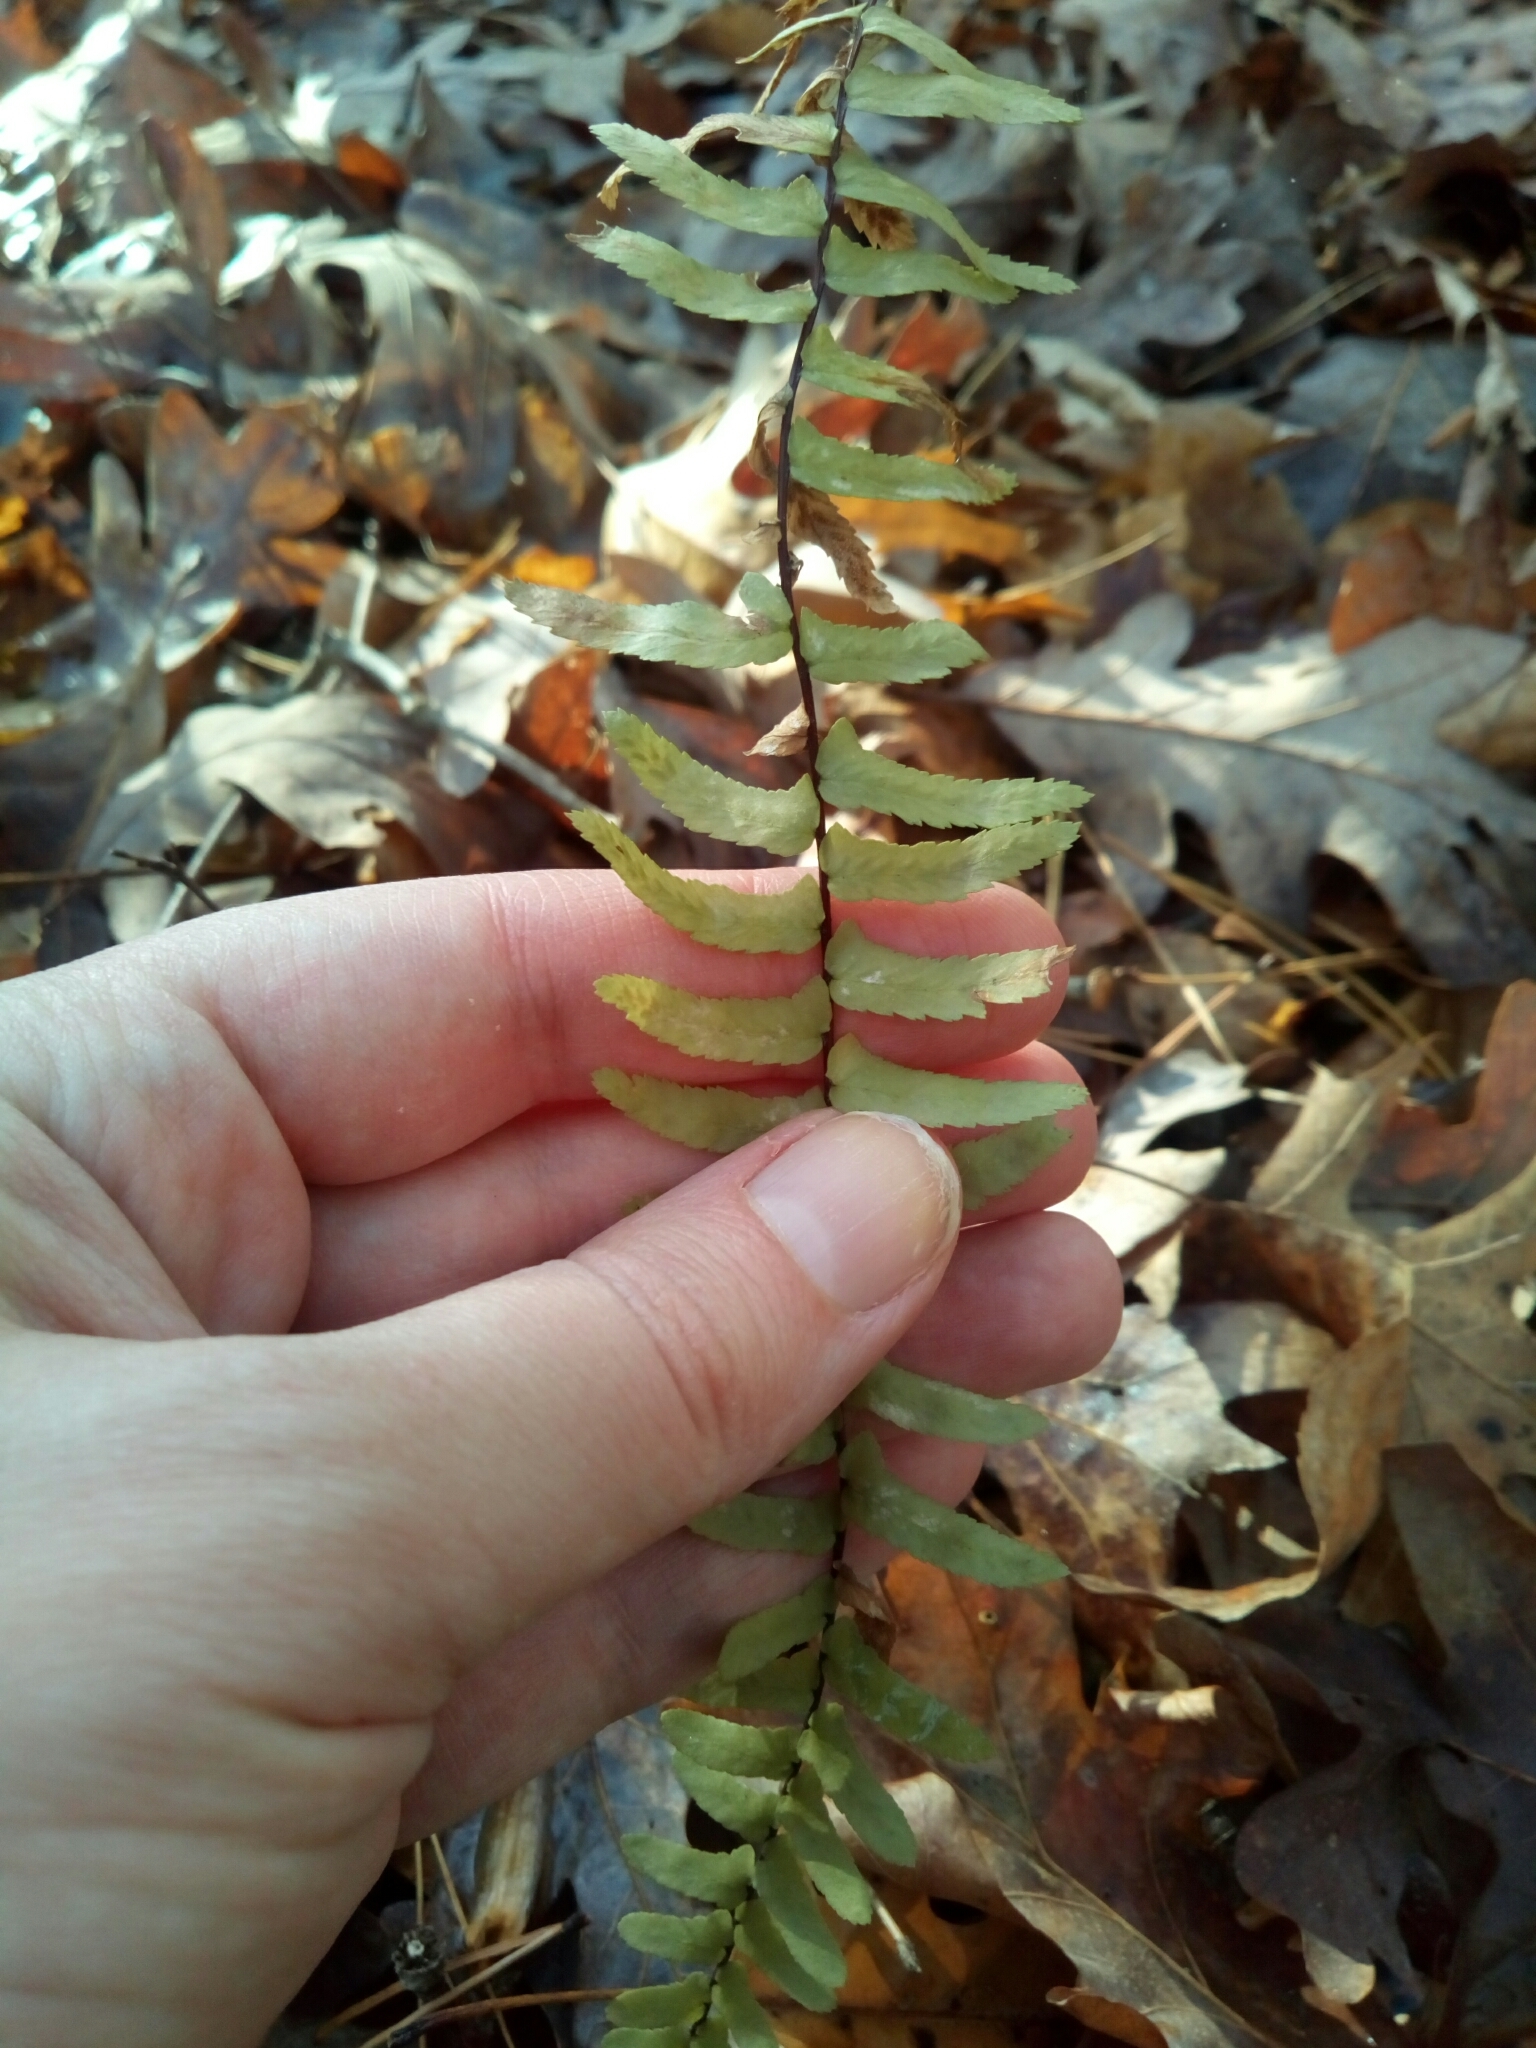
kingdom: Plantae
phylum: Tracheophyta
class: Polypodiopsida
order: Polypodiales
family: Aspleniaceae
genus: Asplenium
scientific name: Asplenium platyneuron
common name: Ebony spleenwort
